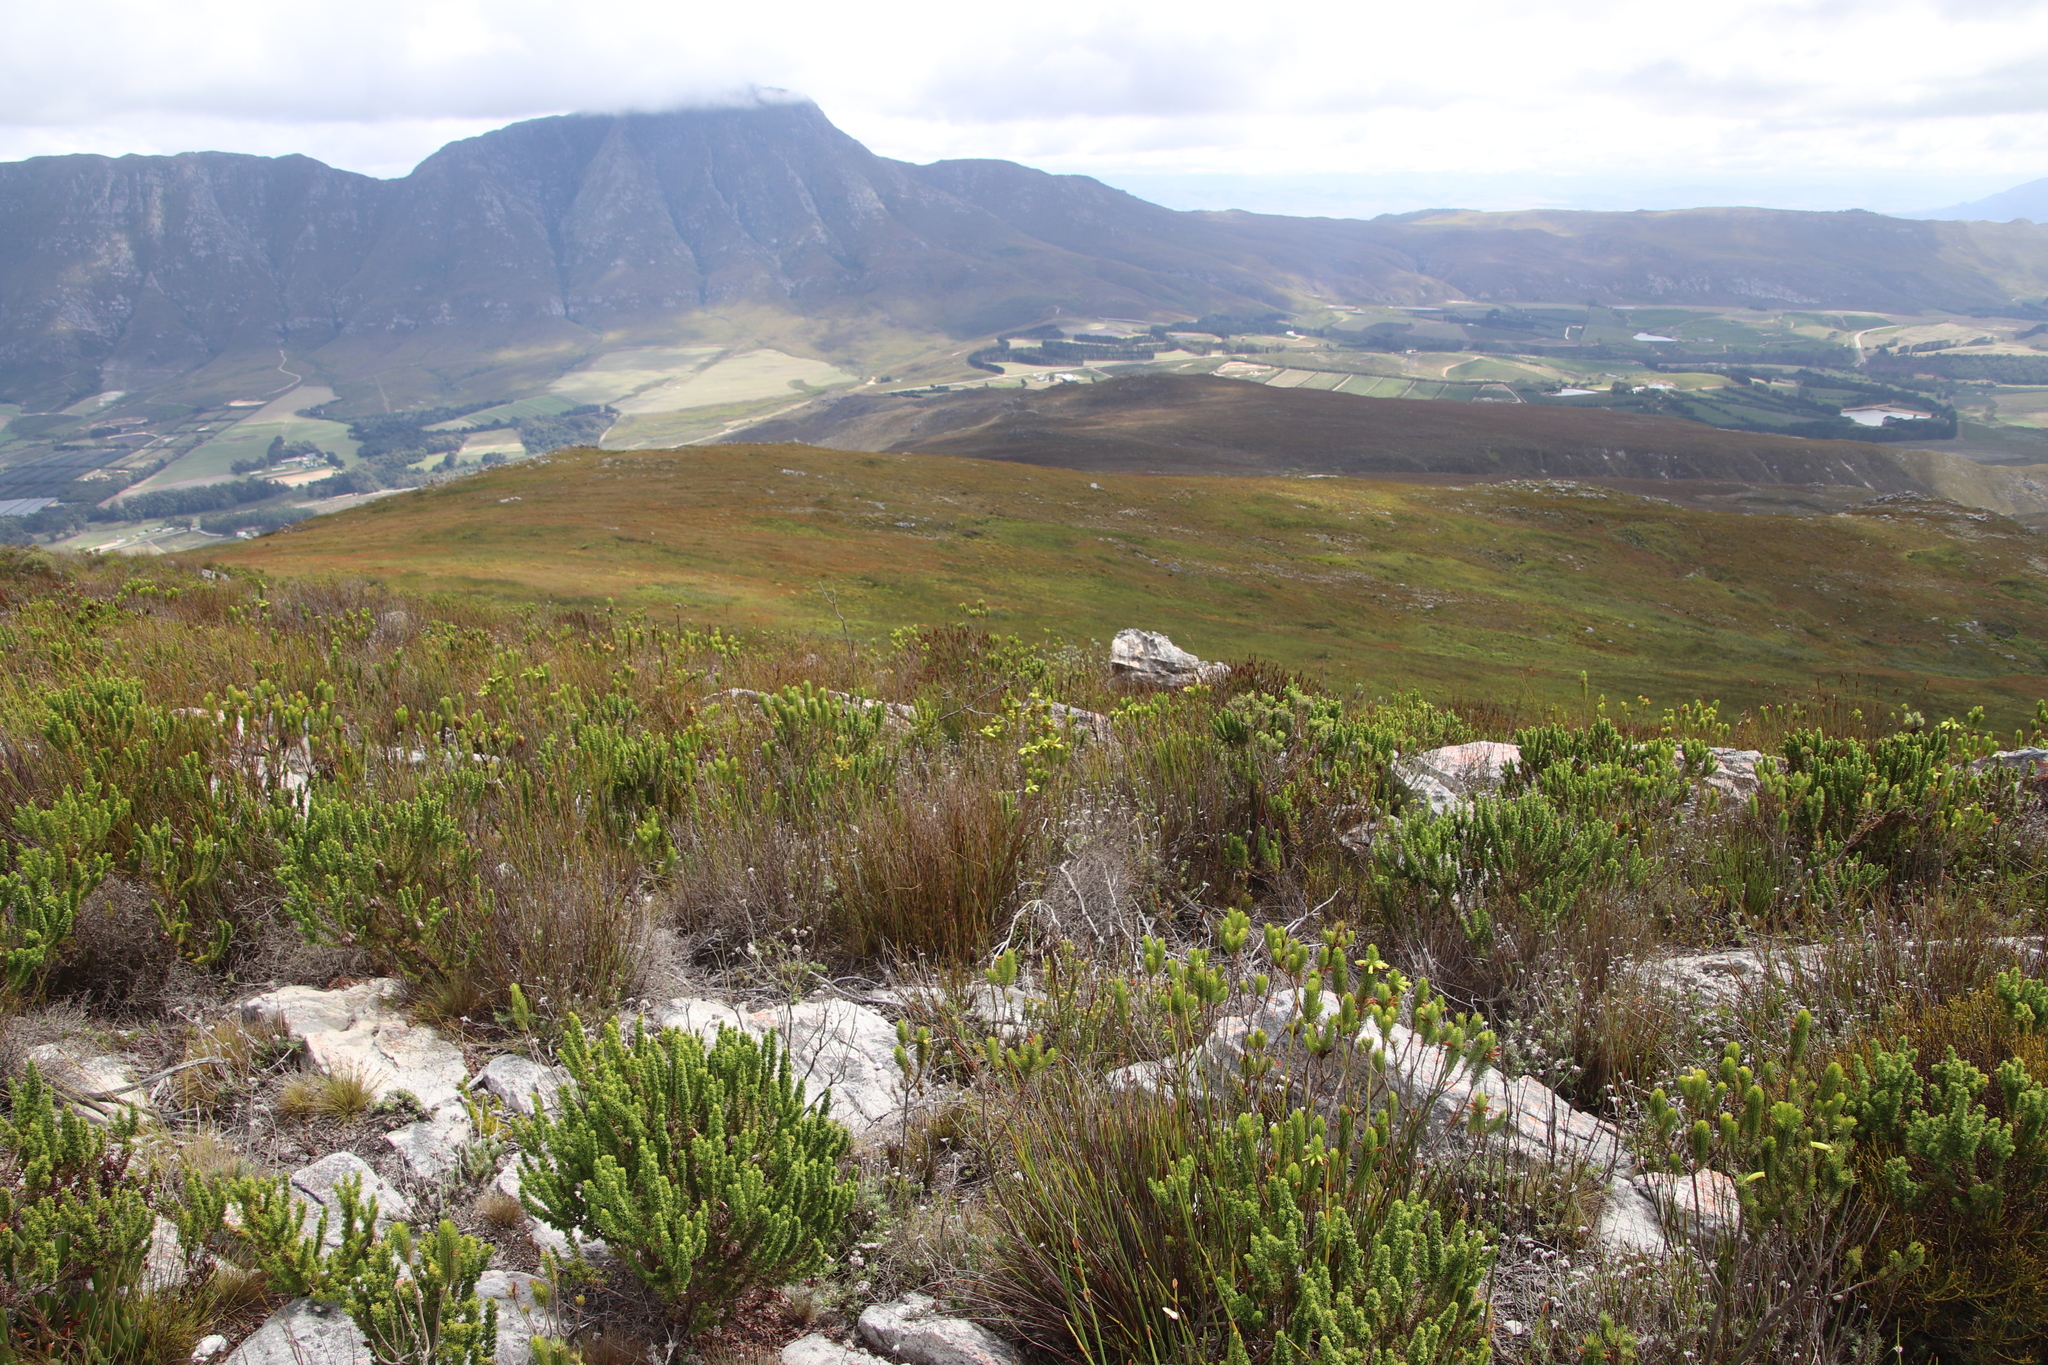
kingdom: Plantae
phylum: Tracheophyta
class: Magnoliopsida
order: Ericales
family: Ericaceae
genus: Erica
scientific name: Erica viscaria
